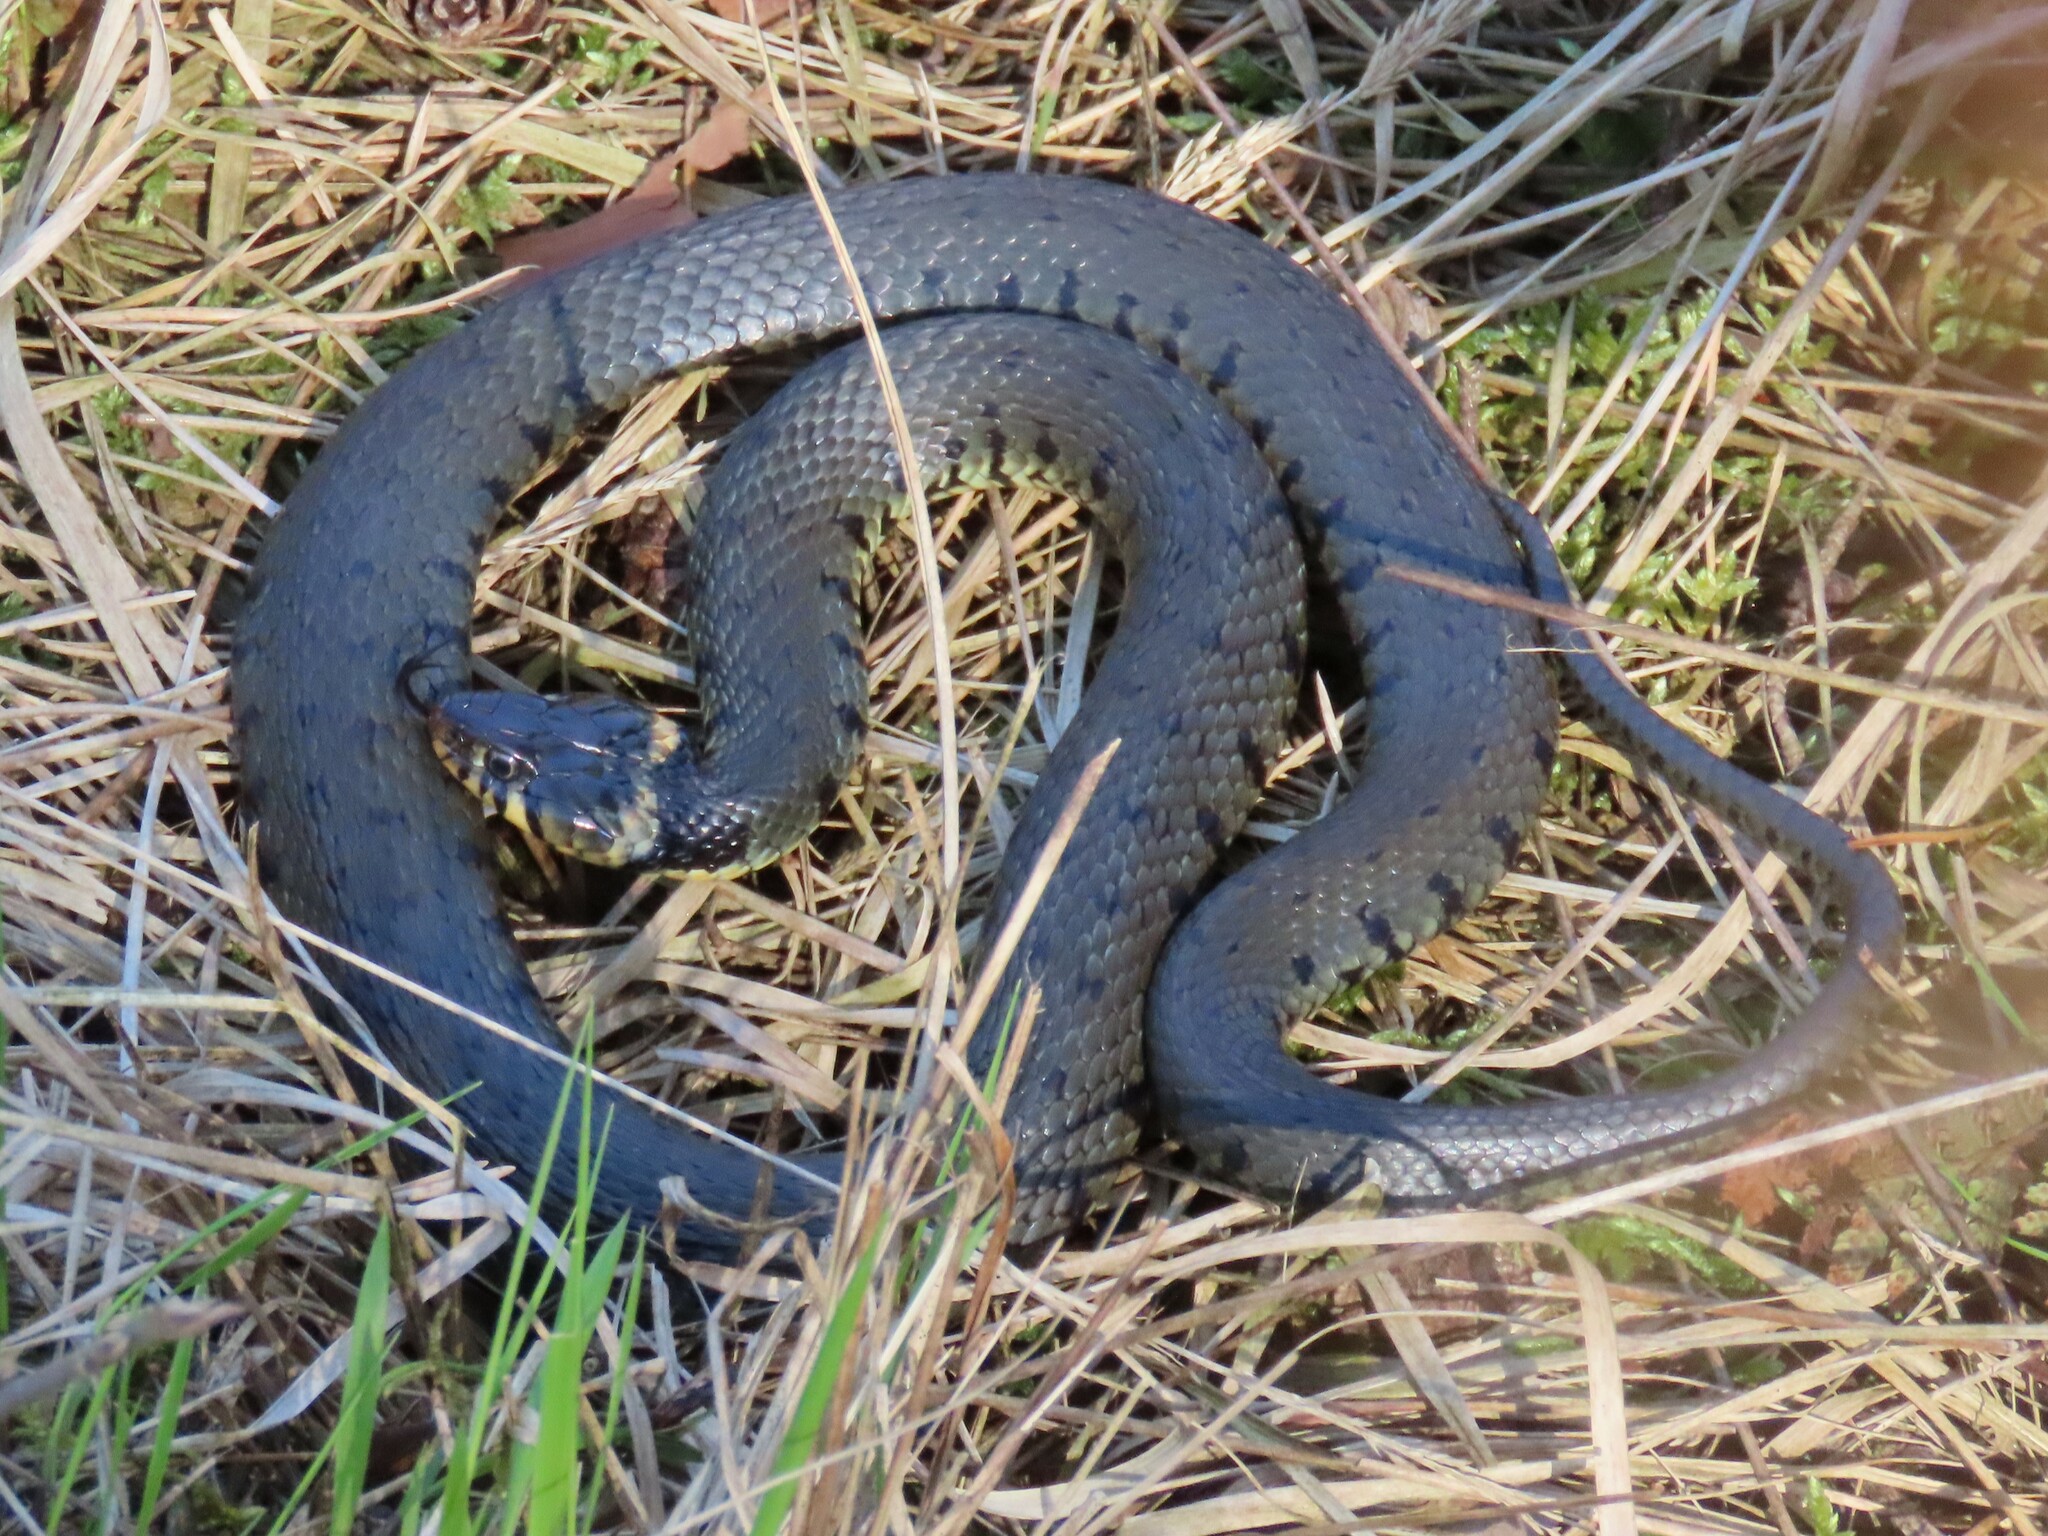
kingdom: Animalia
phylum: Chordata
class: Squamata
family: Colubridae
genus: Natrix
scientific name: Natrix helvetica
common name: Banded grass snake
